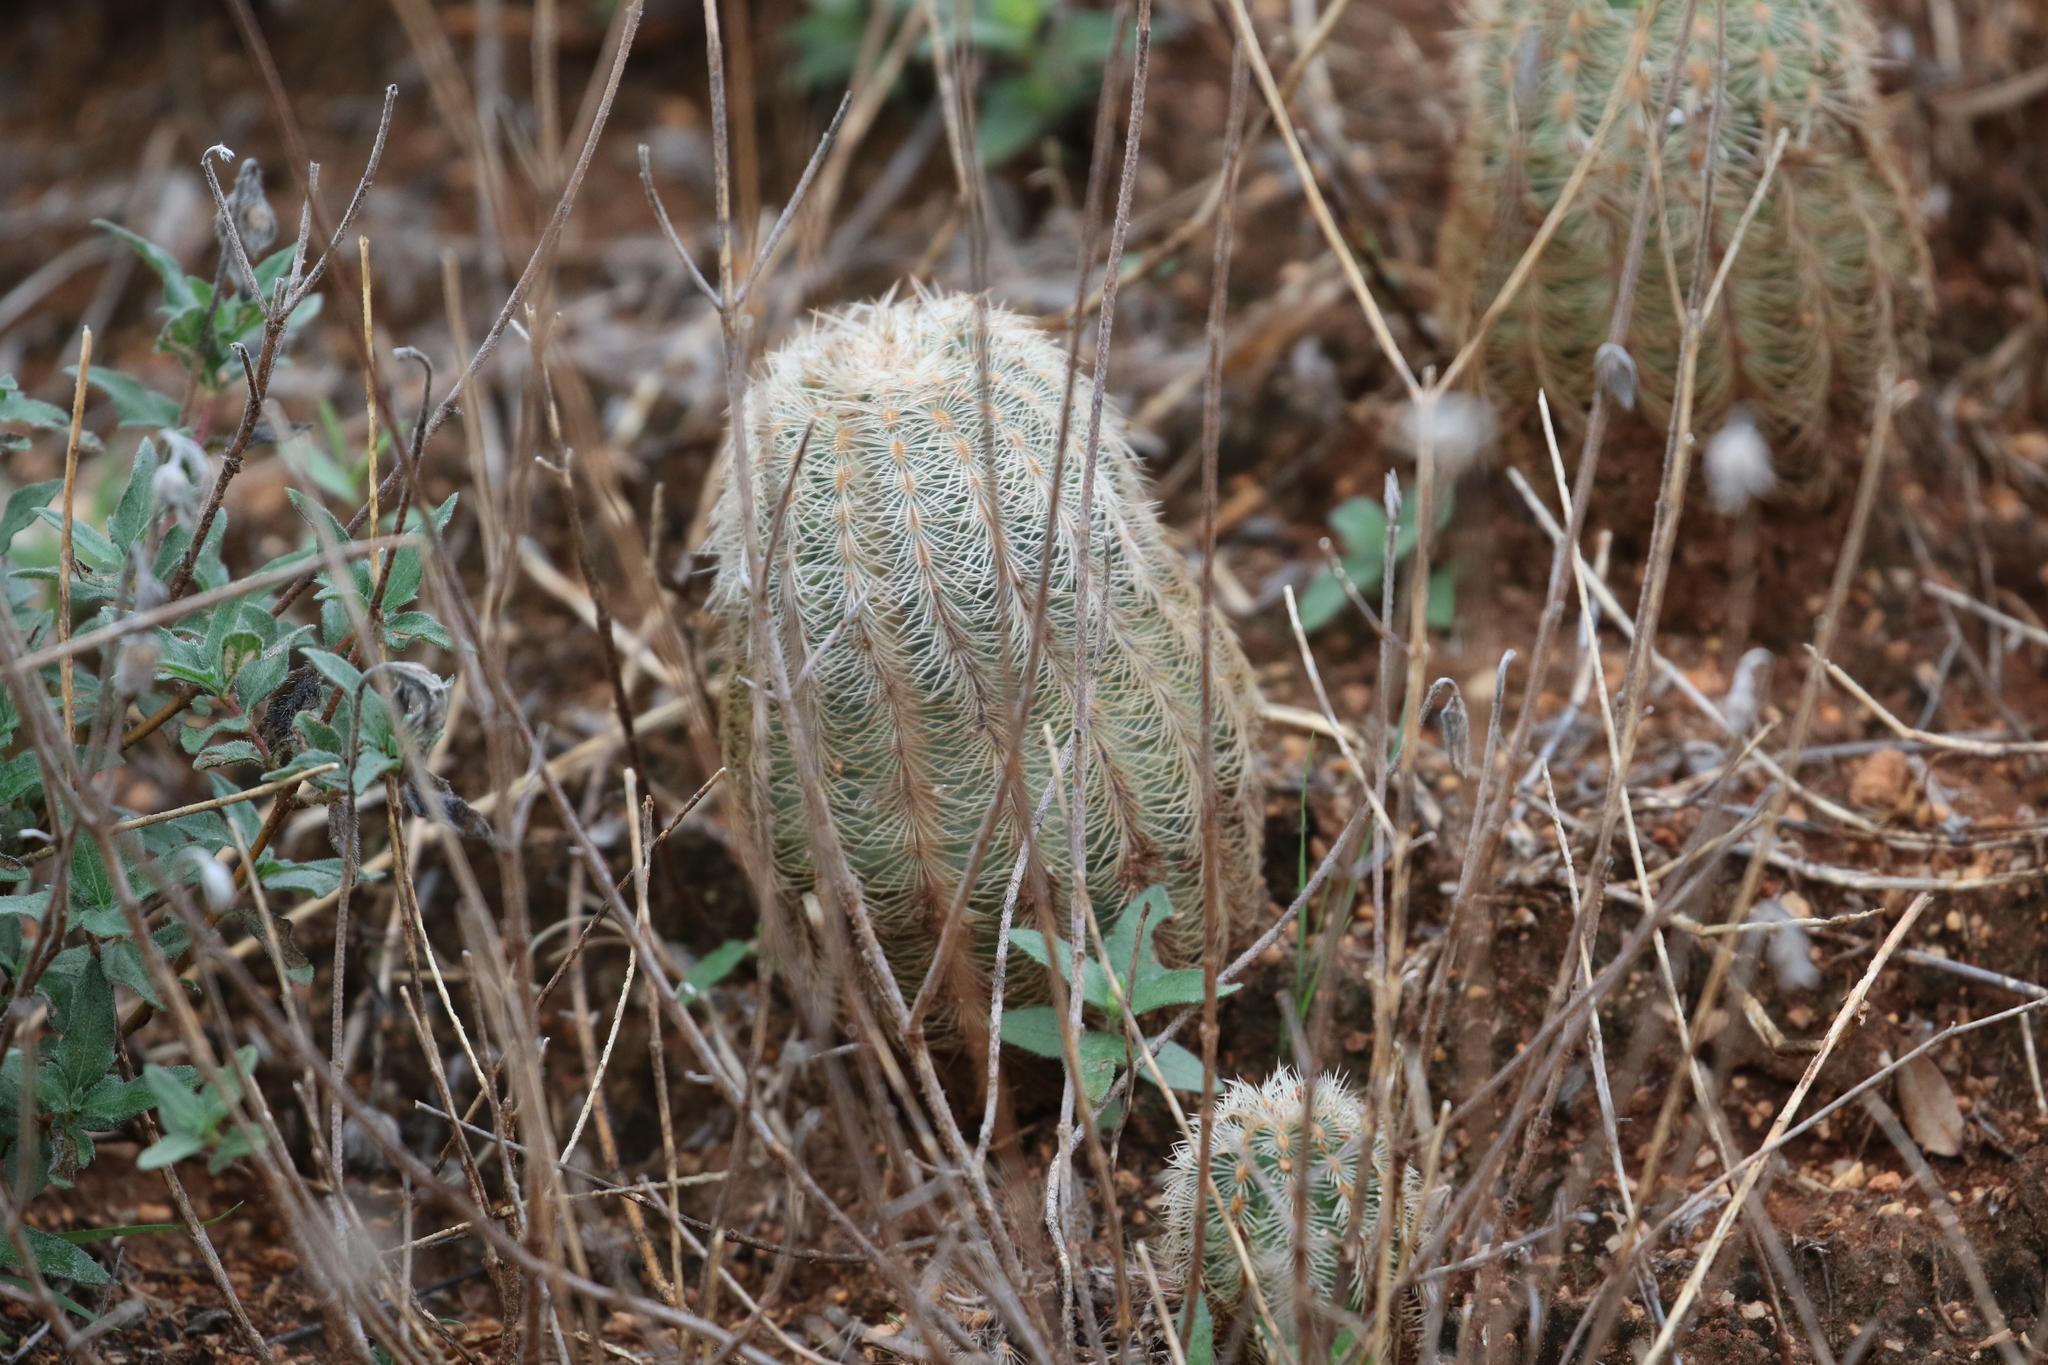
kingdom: Plantae
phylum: Tracheophyta
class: Magnoliopsida
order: Caryophyllales
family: Cactaceae
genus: Echinocereus
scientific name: Echinocereus reichenbachii
